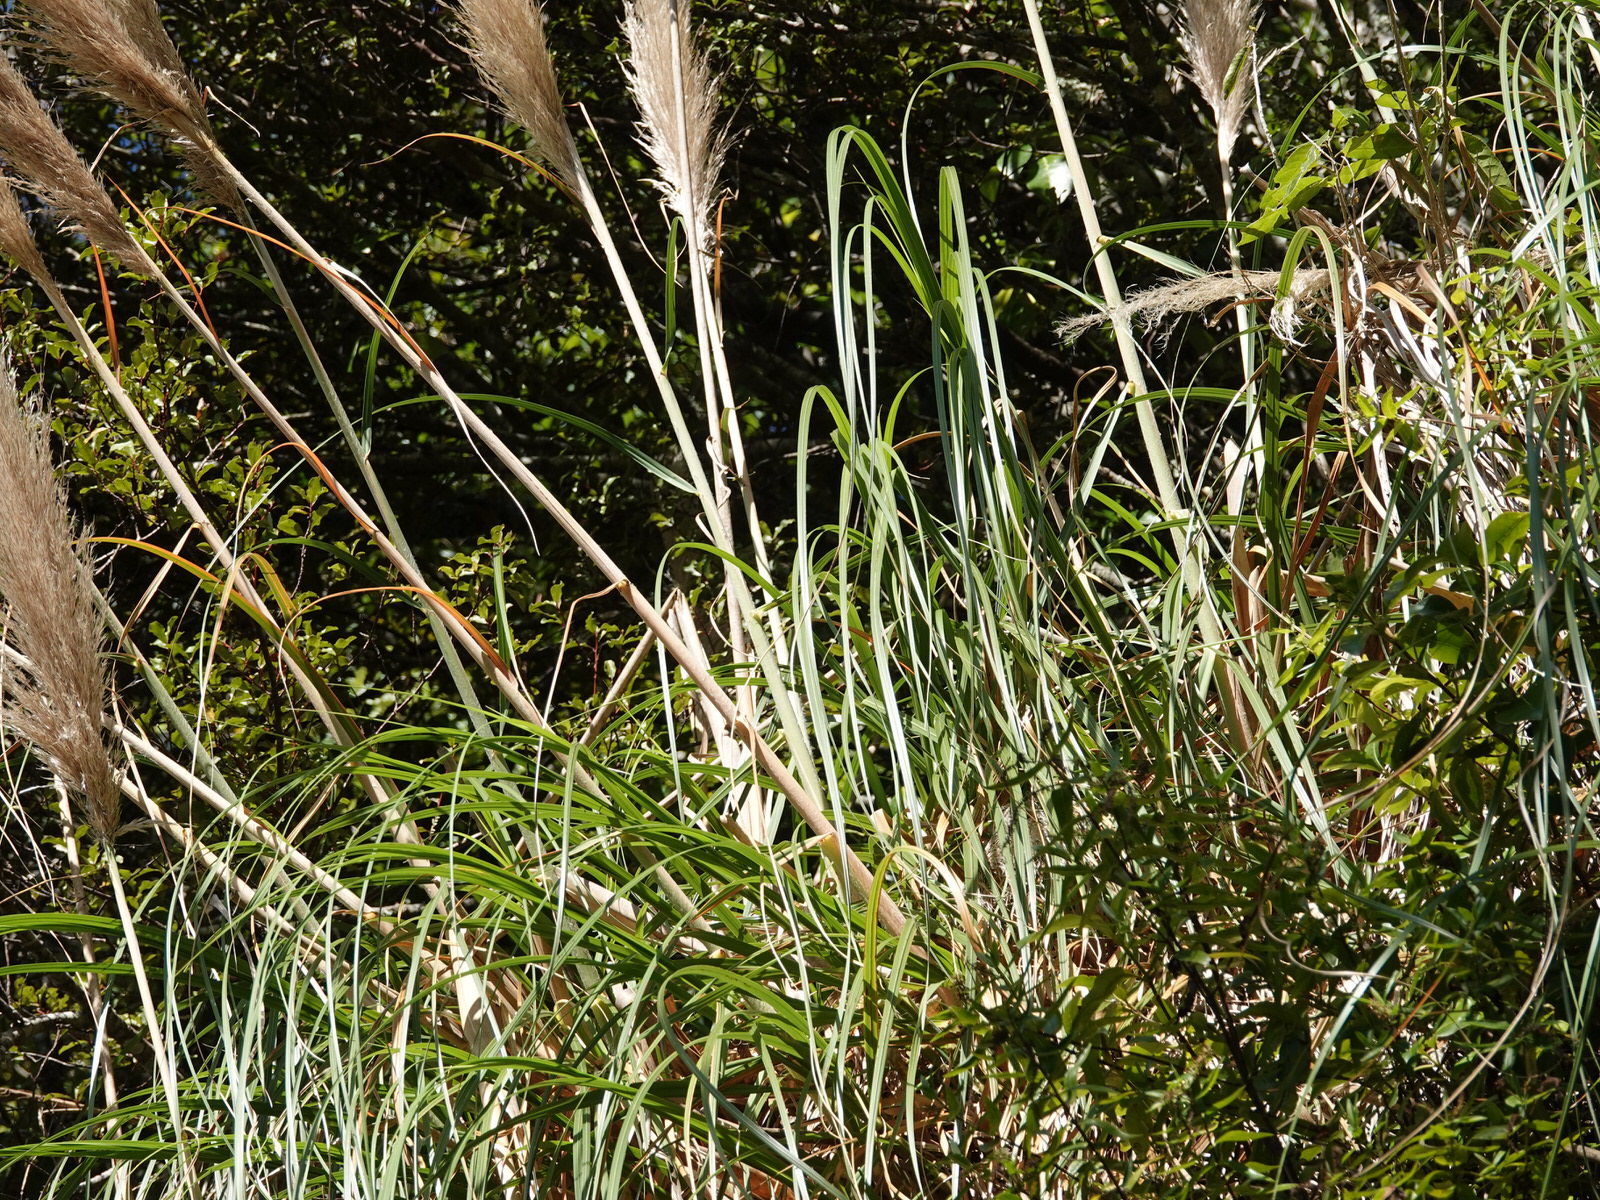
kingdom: Plantae
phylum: Tracheophyta
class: Liliopsida
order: Poales
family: Poaceae
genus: Cortaderia
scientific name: Cortaderia jubata
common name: Purple pampas grass
